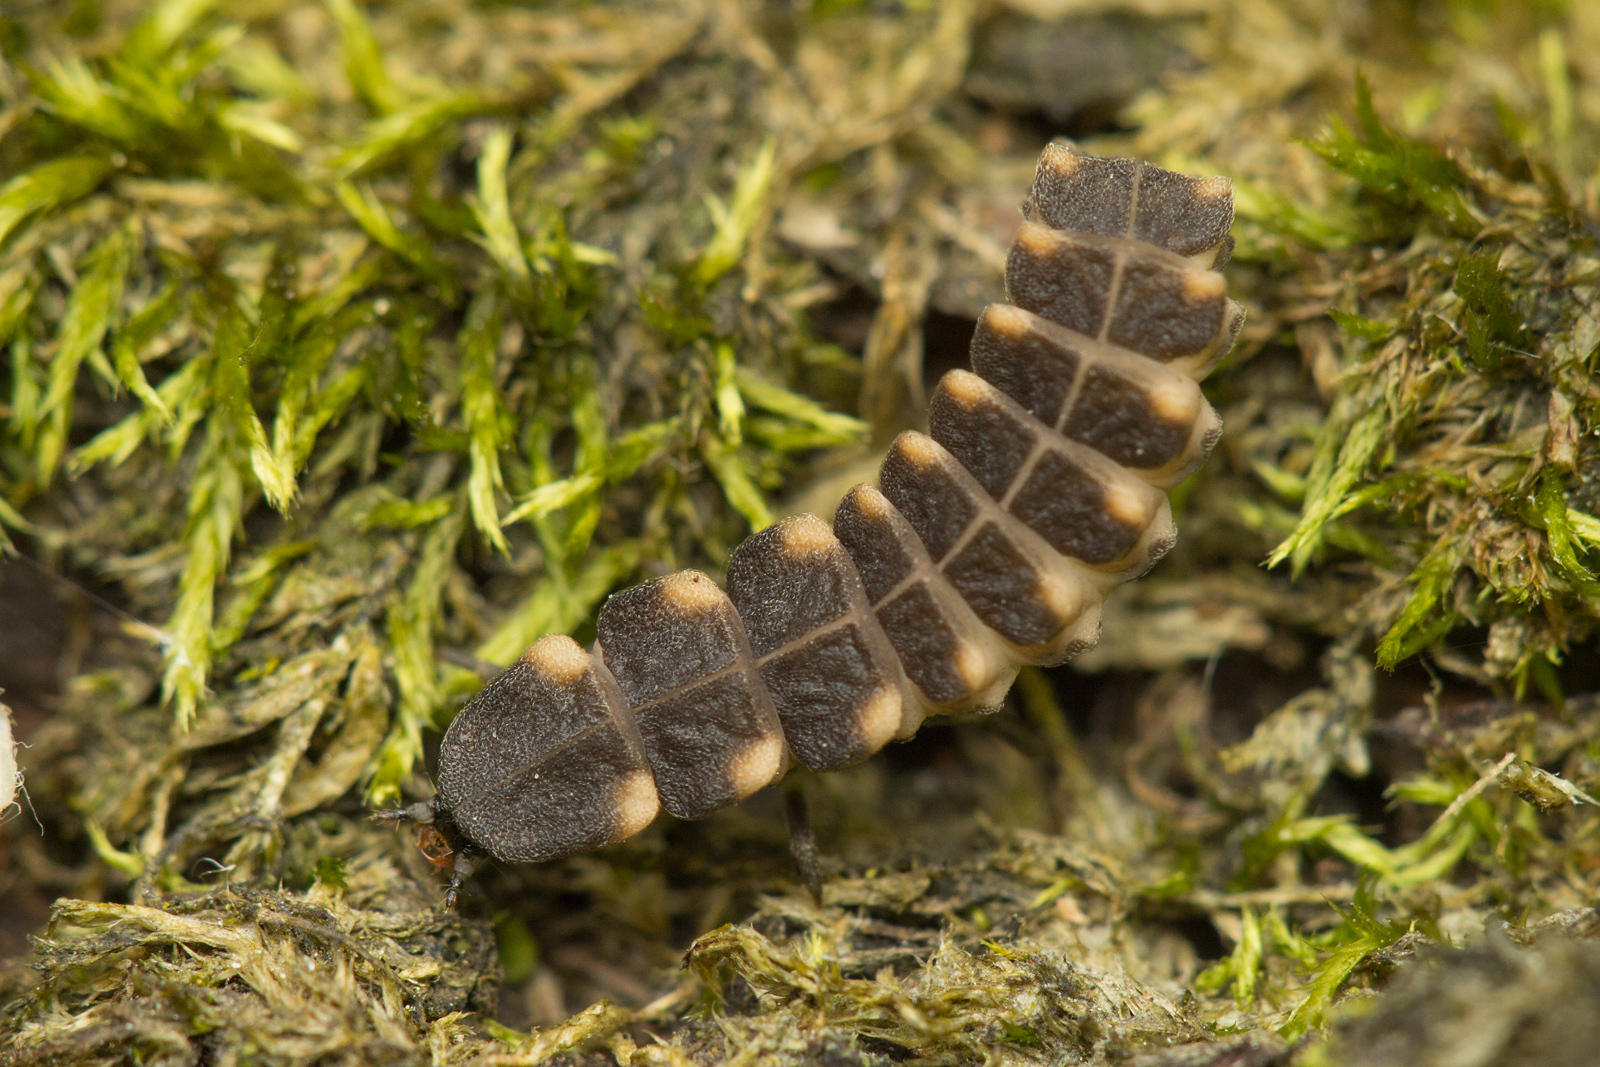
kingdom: Animalia
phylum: Arthropoda
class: Insecta
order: Coleoptera
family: Lampyridae
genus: Lampyris
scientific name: Lampyris noctiluca
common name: Glow-worm
